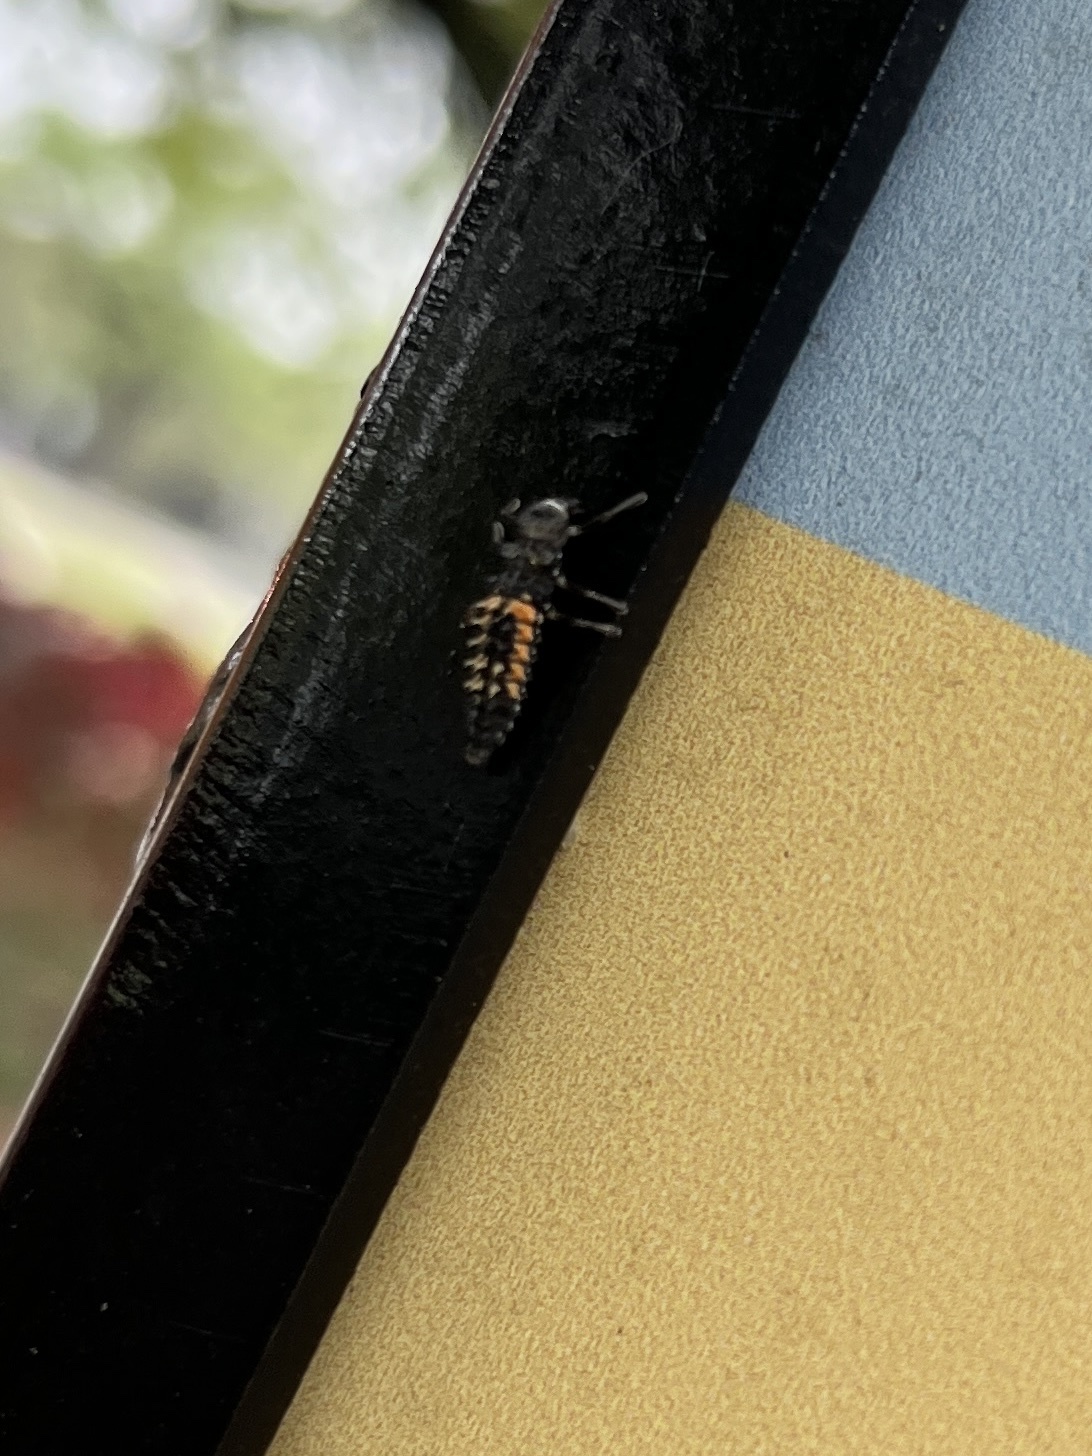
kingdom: Animalia
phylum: Arthropoda
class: Insecta
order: Coleoptera
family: Coccinellidae
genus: Harmonia
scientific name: Harmonia axyridis
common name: Harlequin ladybird
